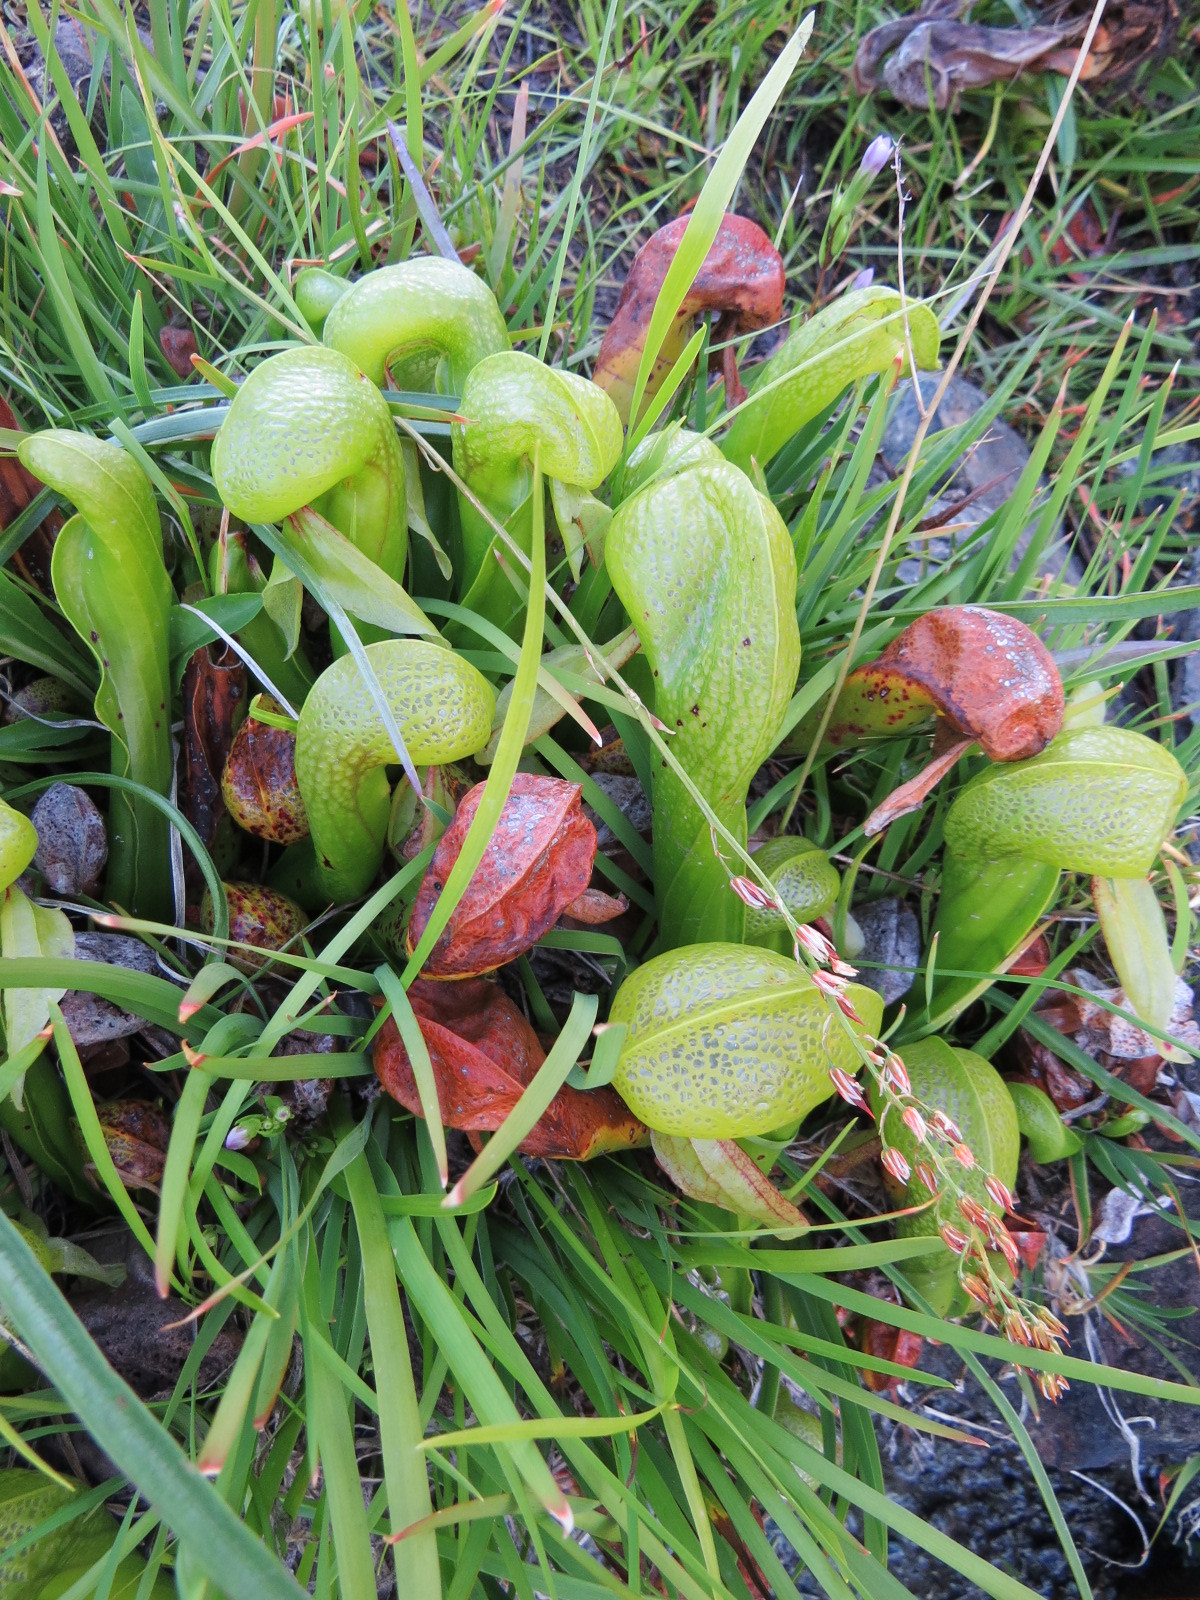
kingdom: Plantae
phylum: Tracheophyta
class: Magnoliopsida
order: Ericales
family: Sarraceniaceae
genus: Darlingtonia
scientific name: Darlingtonia californica
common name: California pitcher plant
